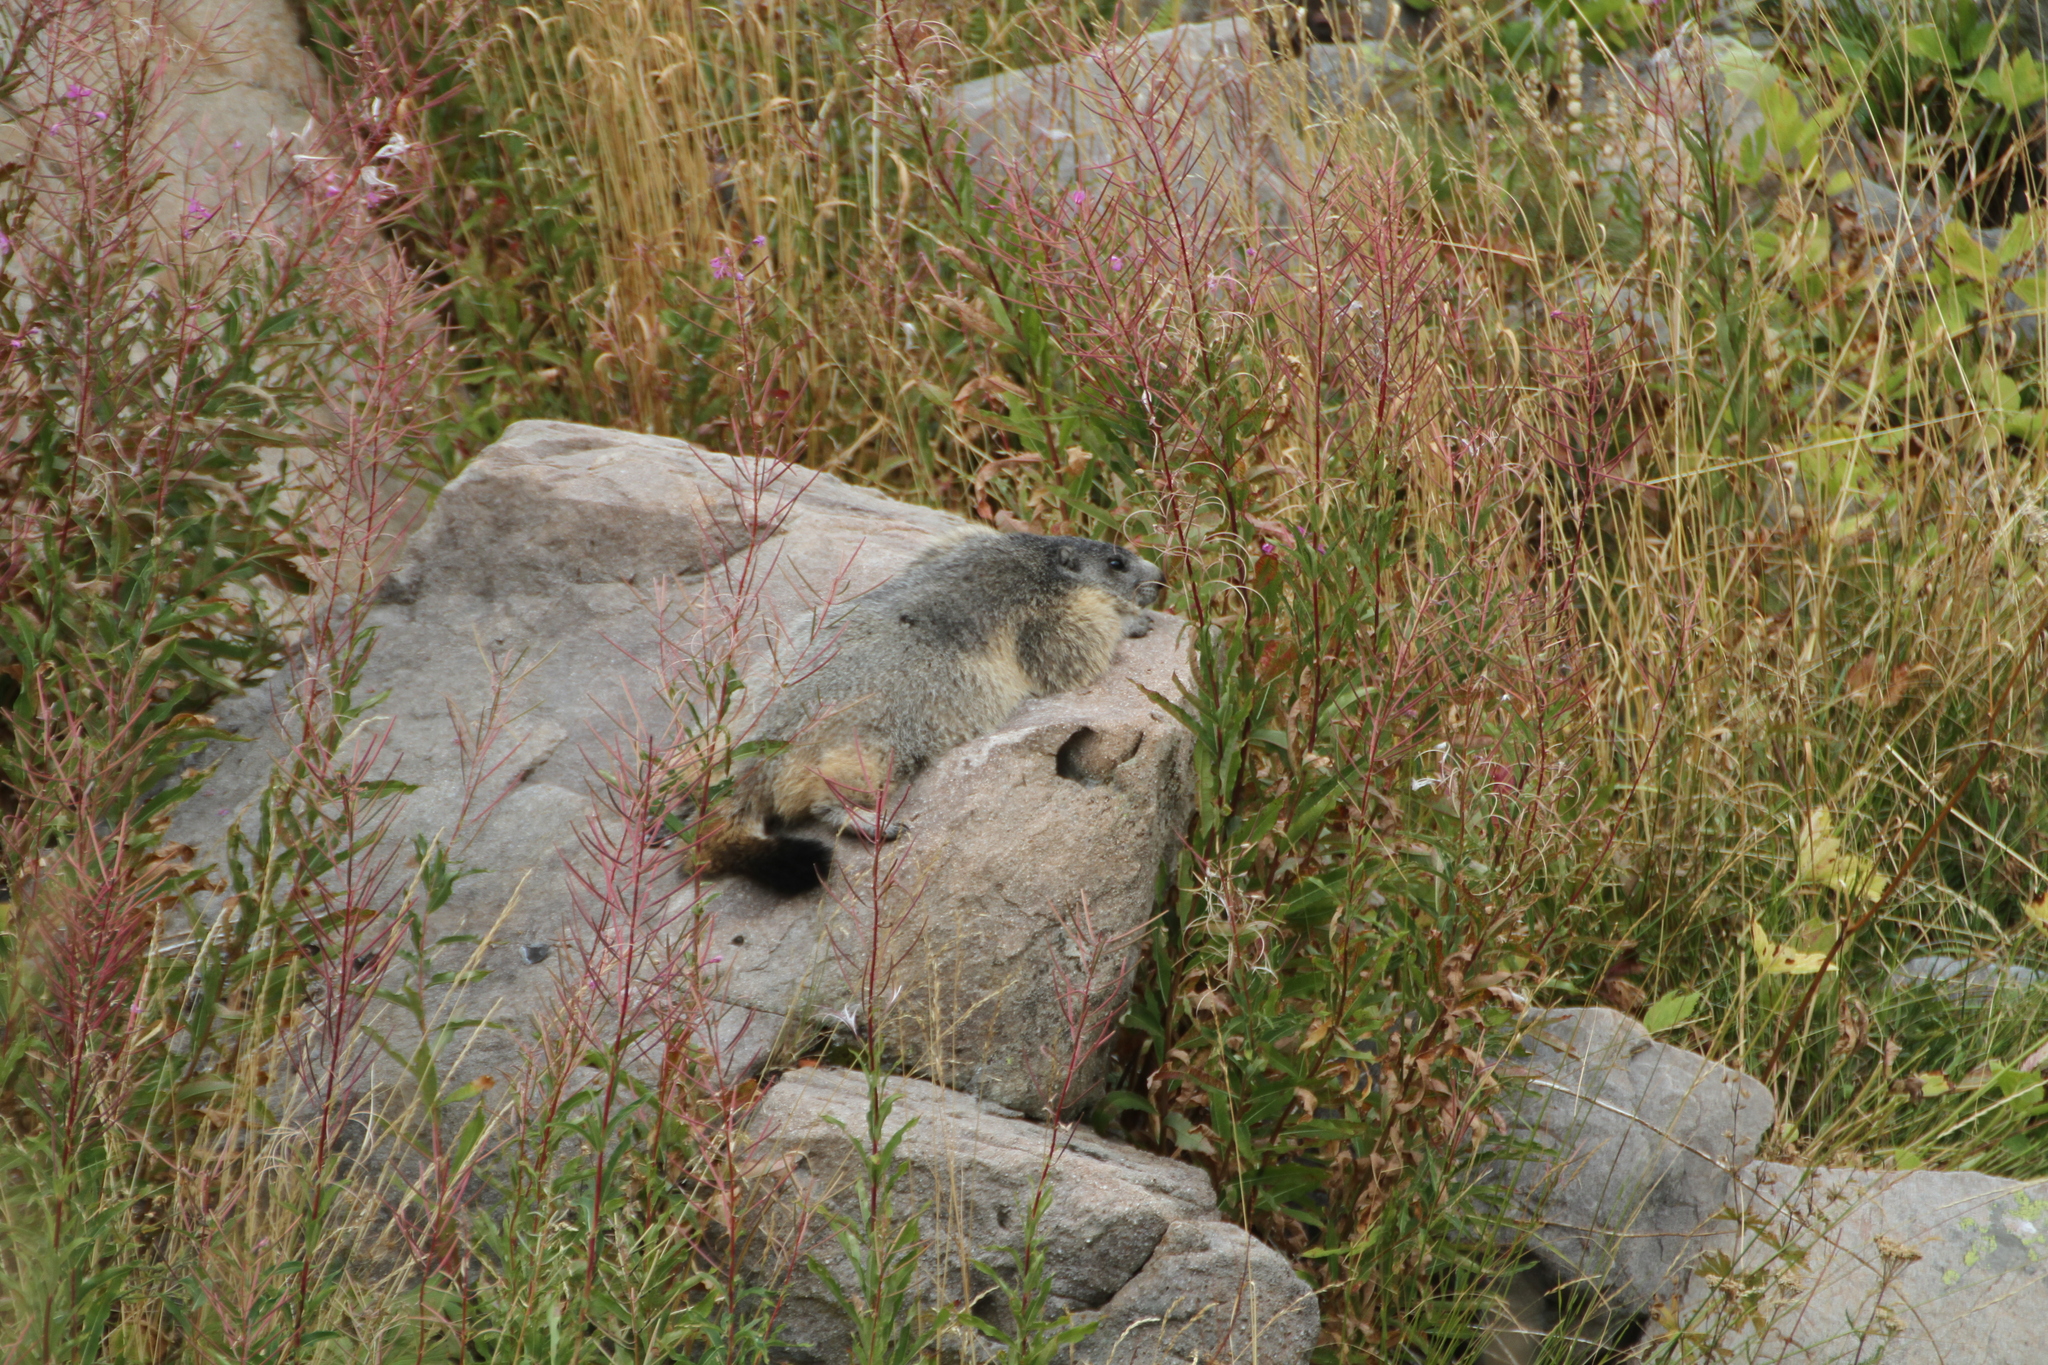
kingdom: Animalia
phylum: Chordata
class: Mammalia
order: Rodentia
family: Sciuridae
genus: Marmota
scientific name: Marmota marmota
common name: Alpine marmot
